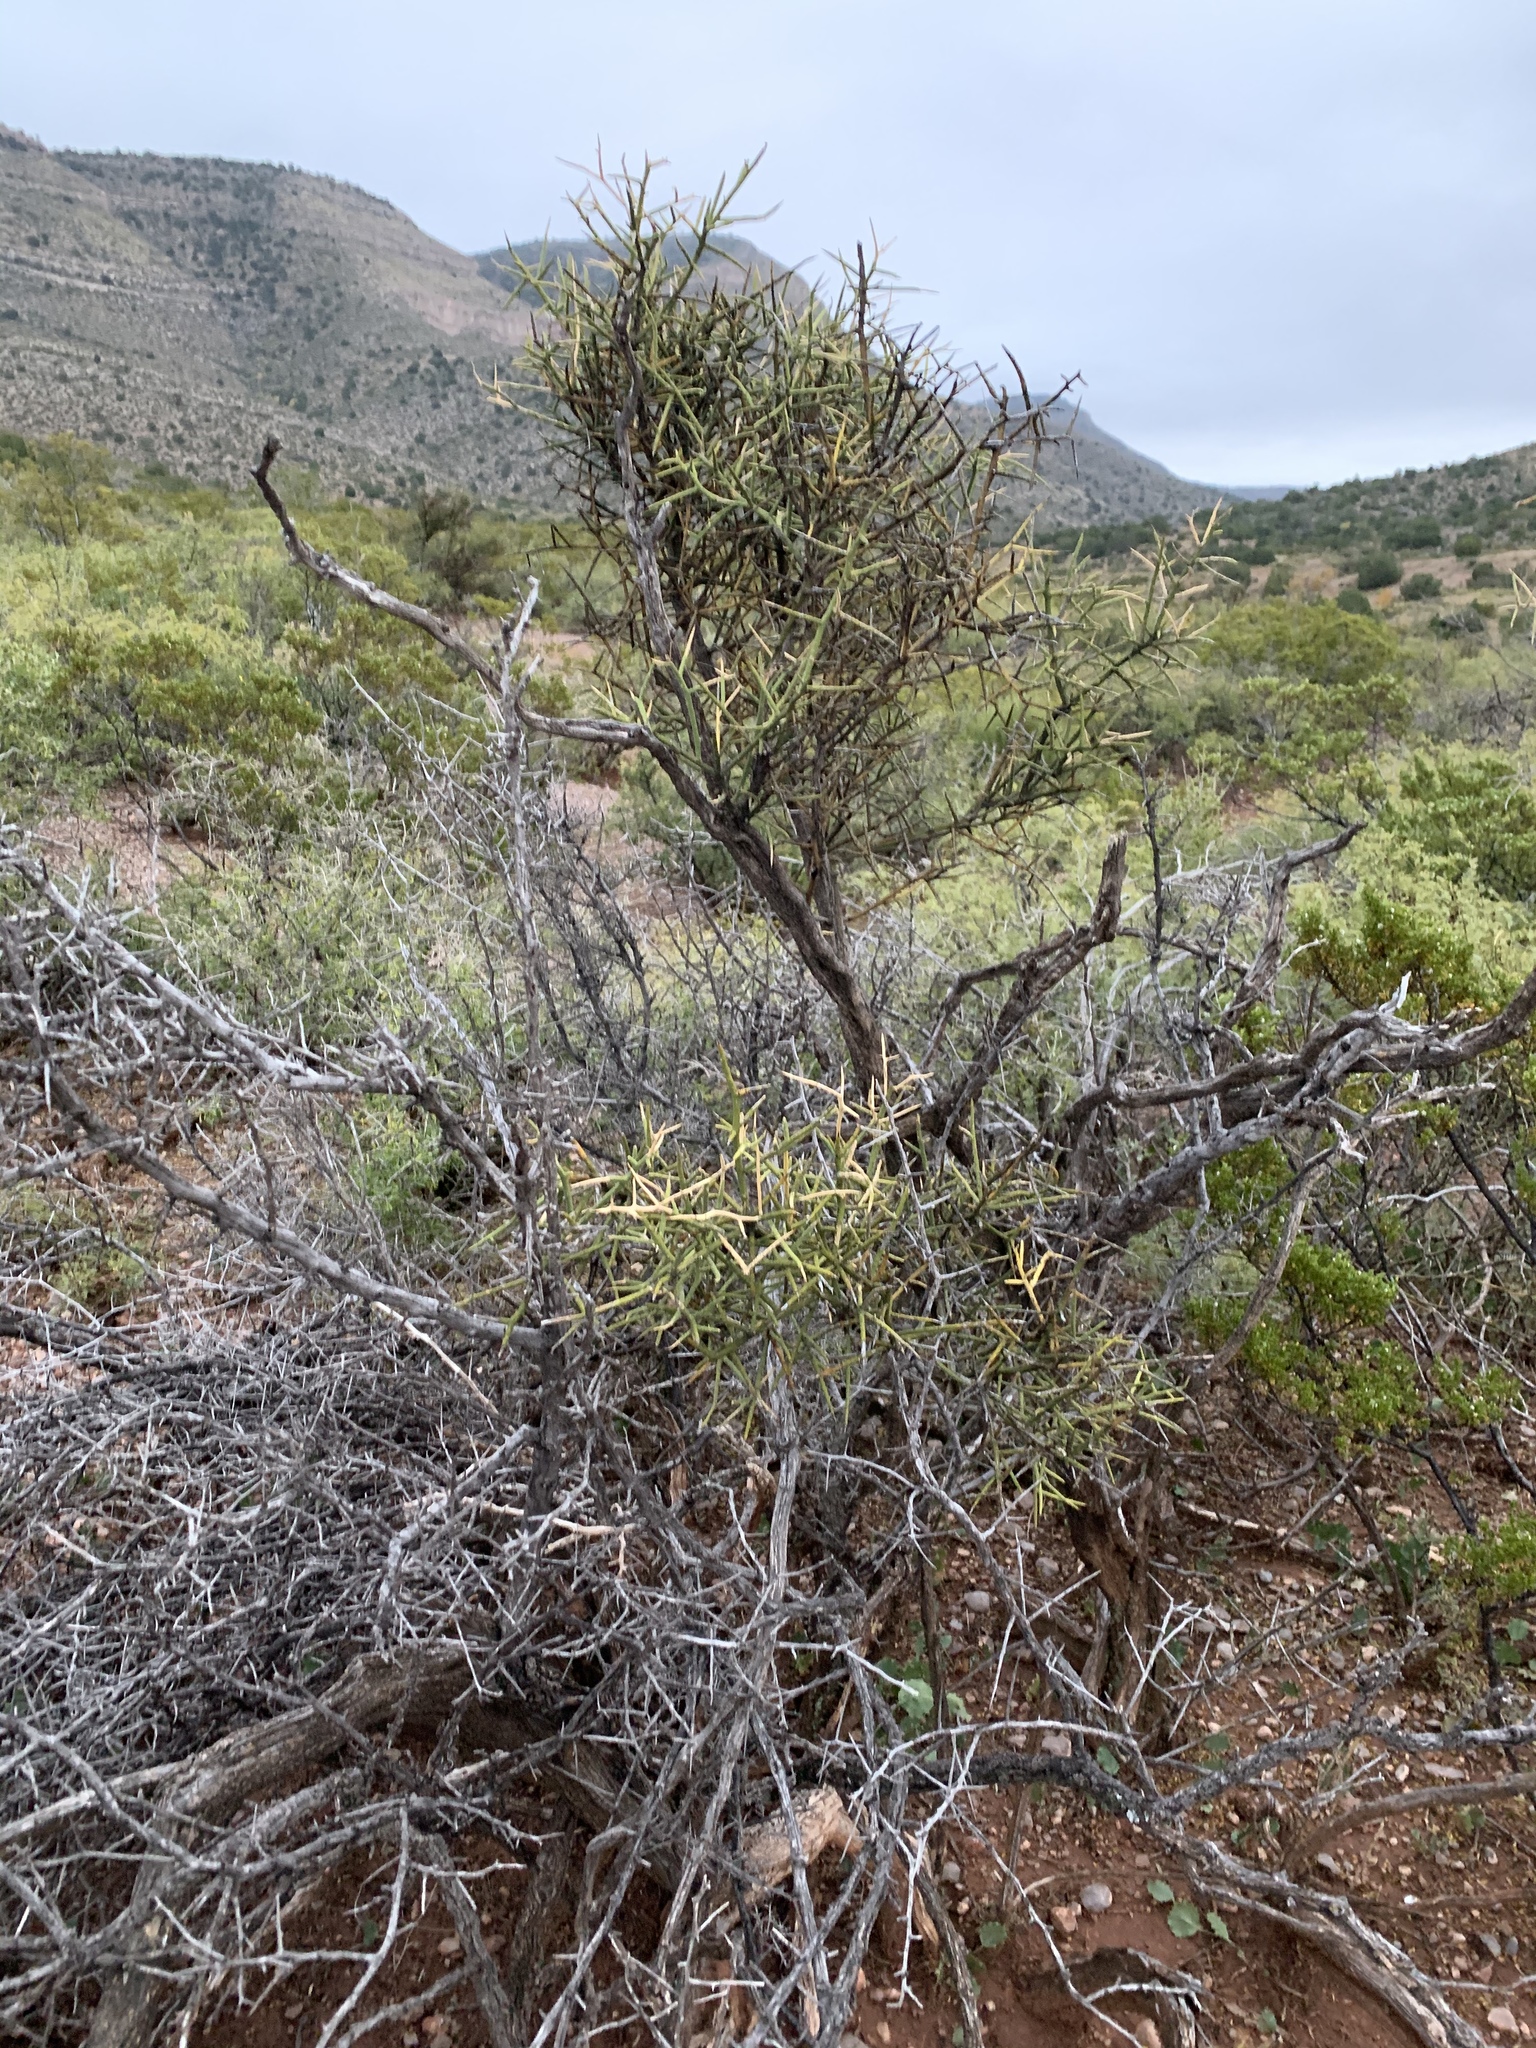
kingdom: Plantae
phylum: Tracheophyta
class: Magnoliopsida
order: Brassicales
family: Koeberliniaceae
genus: Koeberlinia
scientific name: Koeberlinia spinosa
